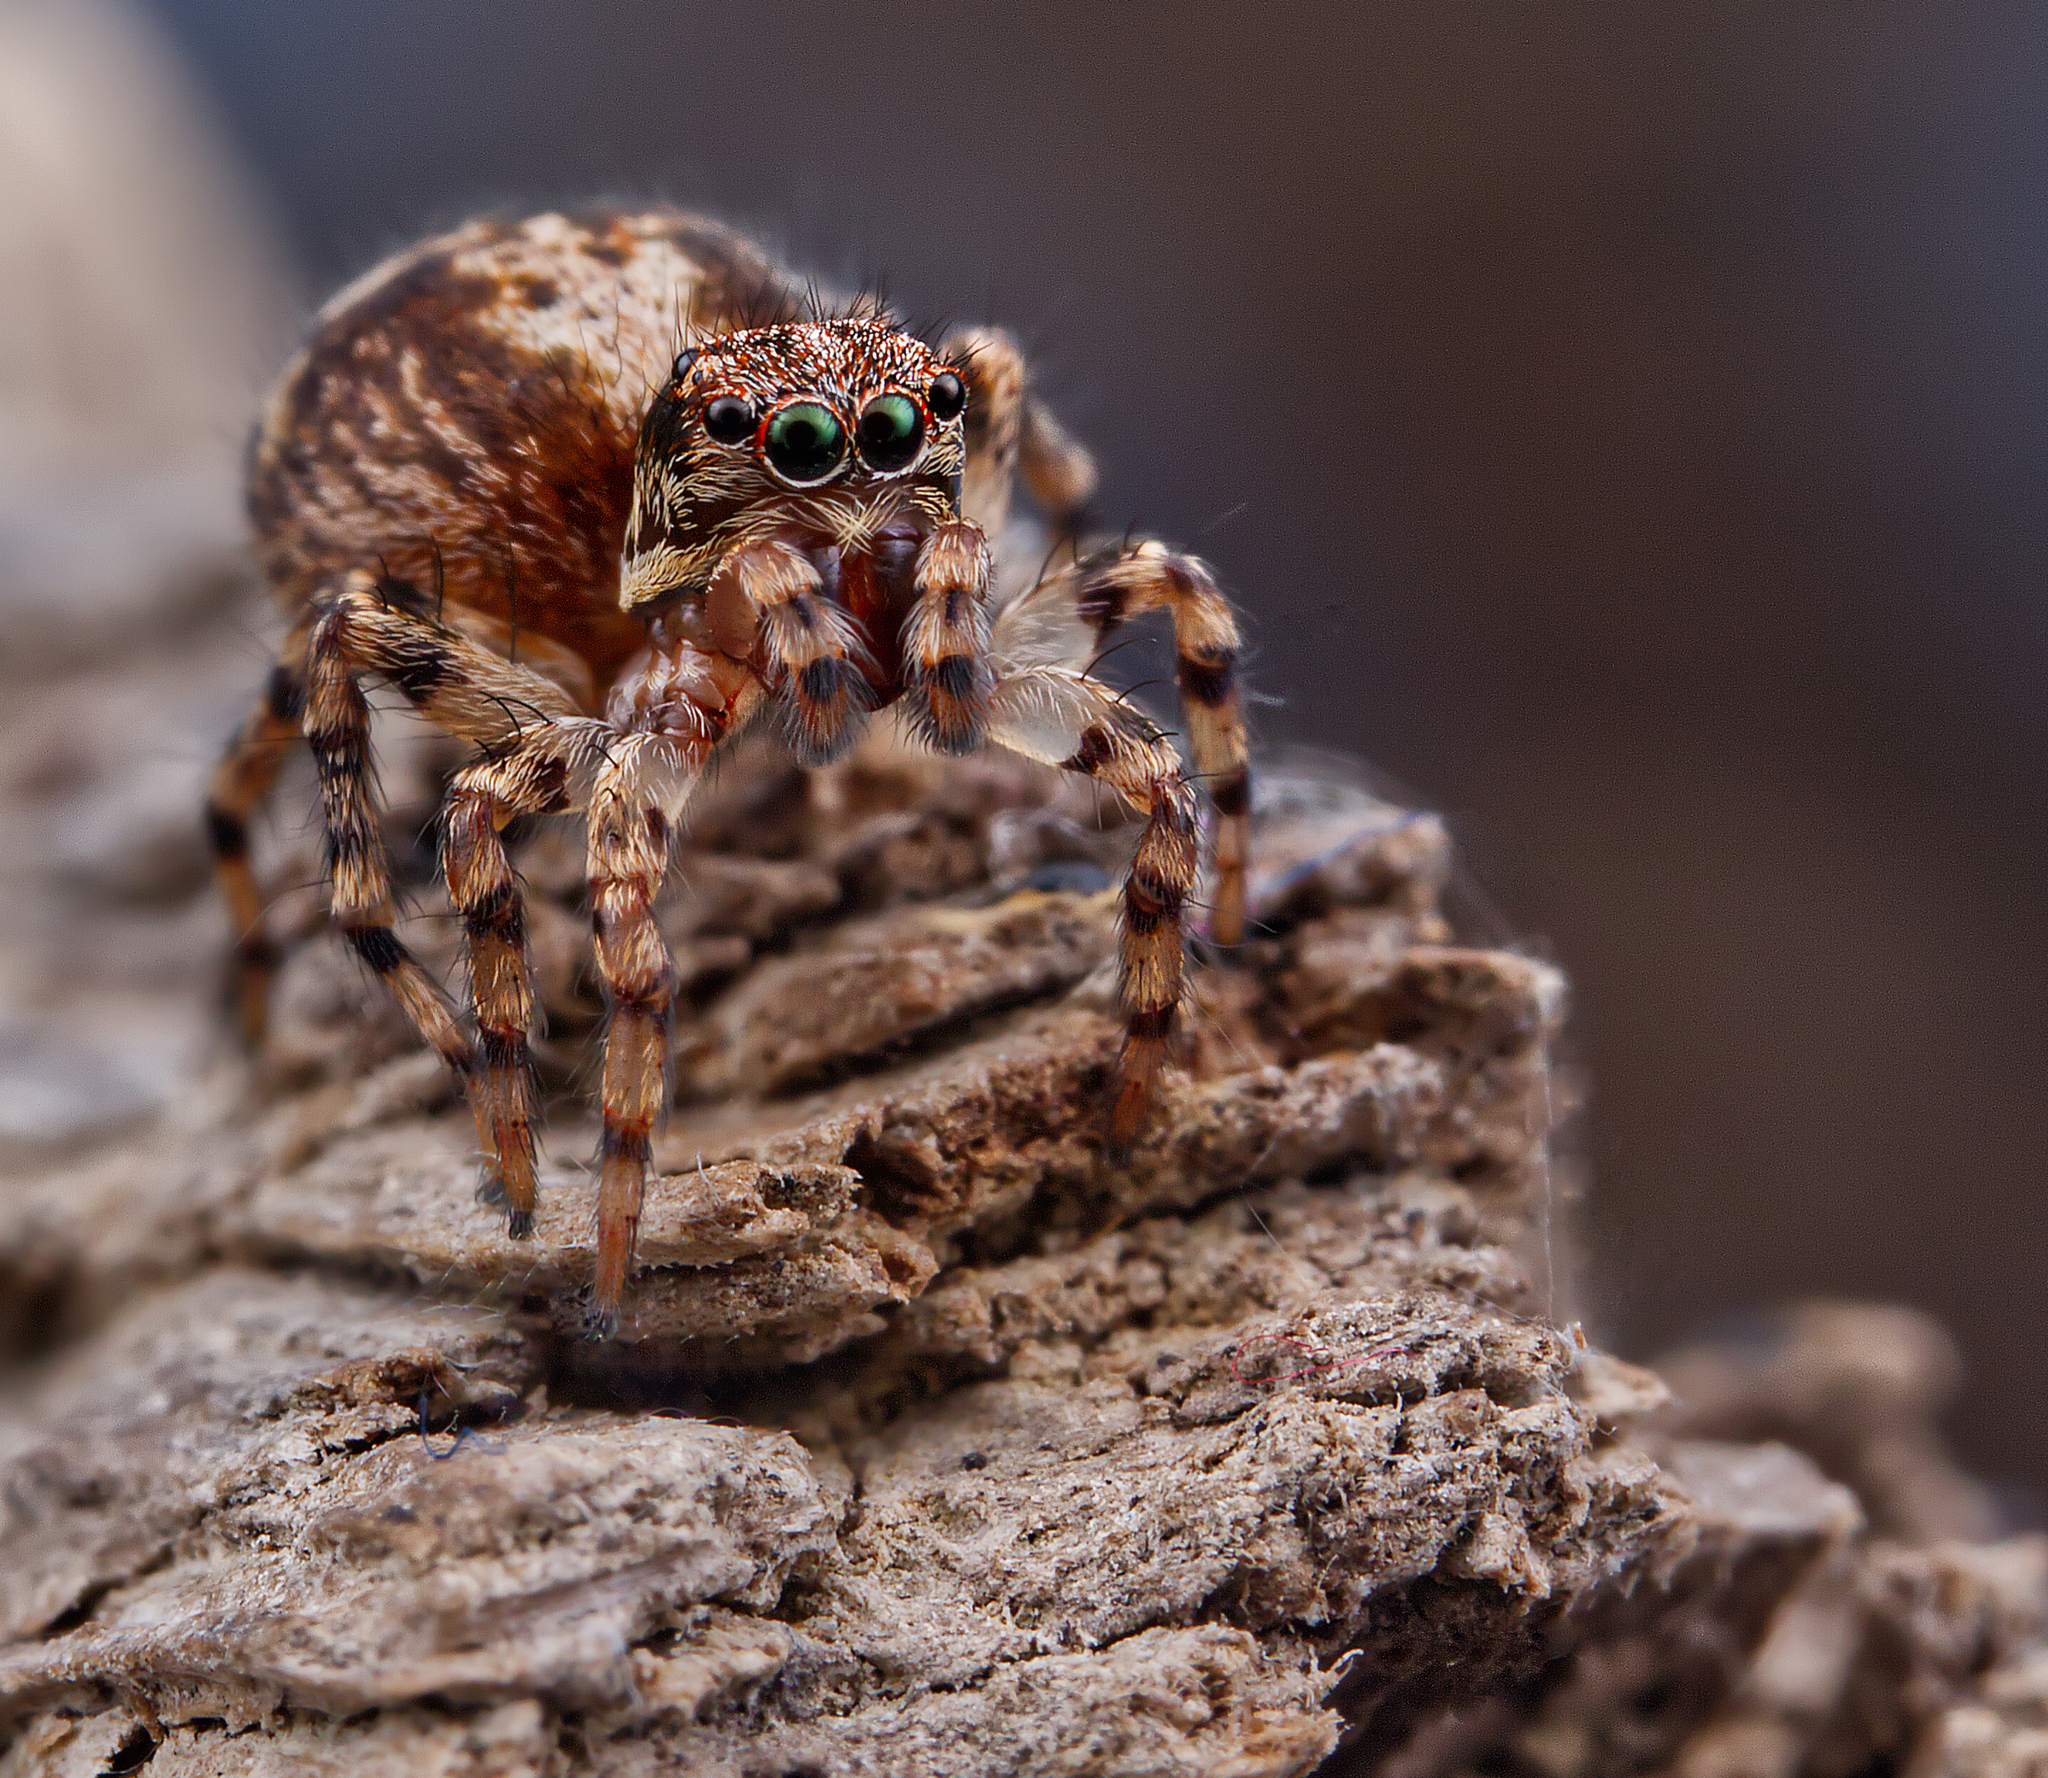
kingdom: Animalia
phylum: Arthropoda
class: Arachnida
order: Araneae
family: Salticidae
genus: Naphrys
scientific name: Naphrys pulex
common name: Flea jumping spider
